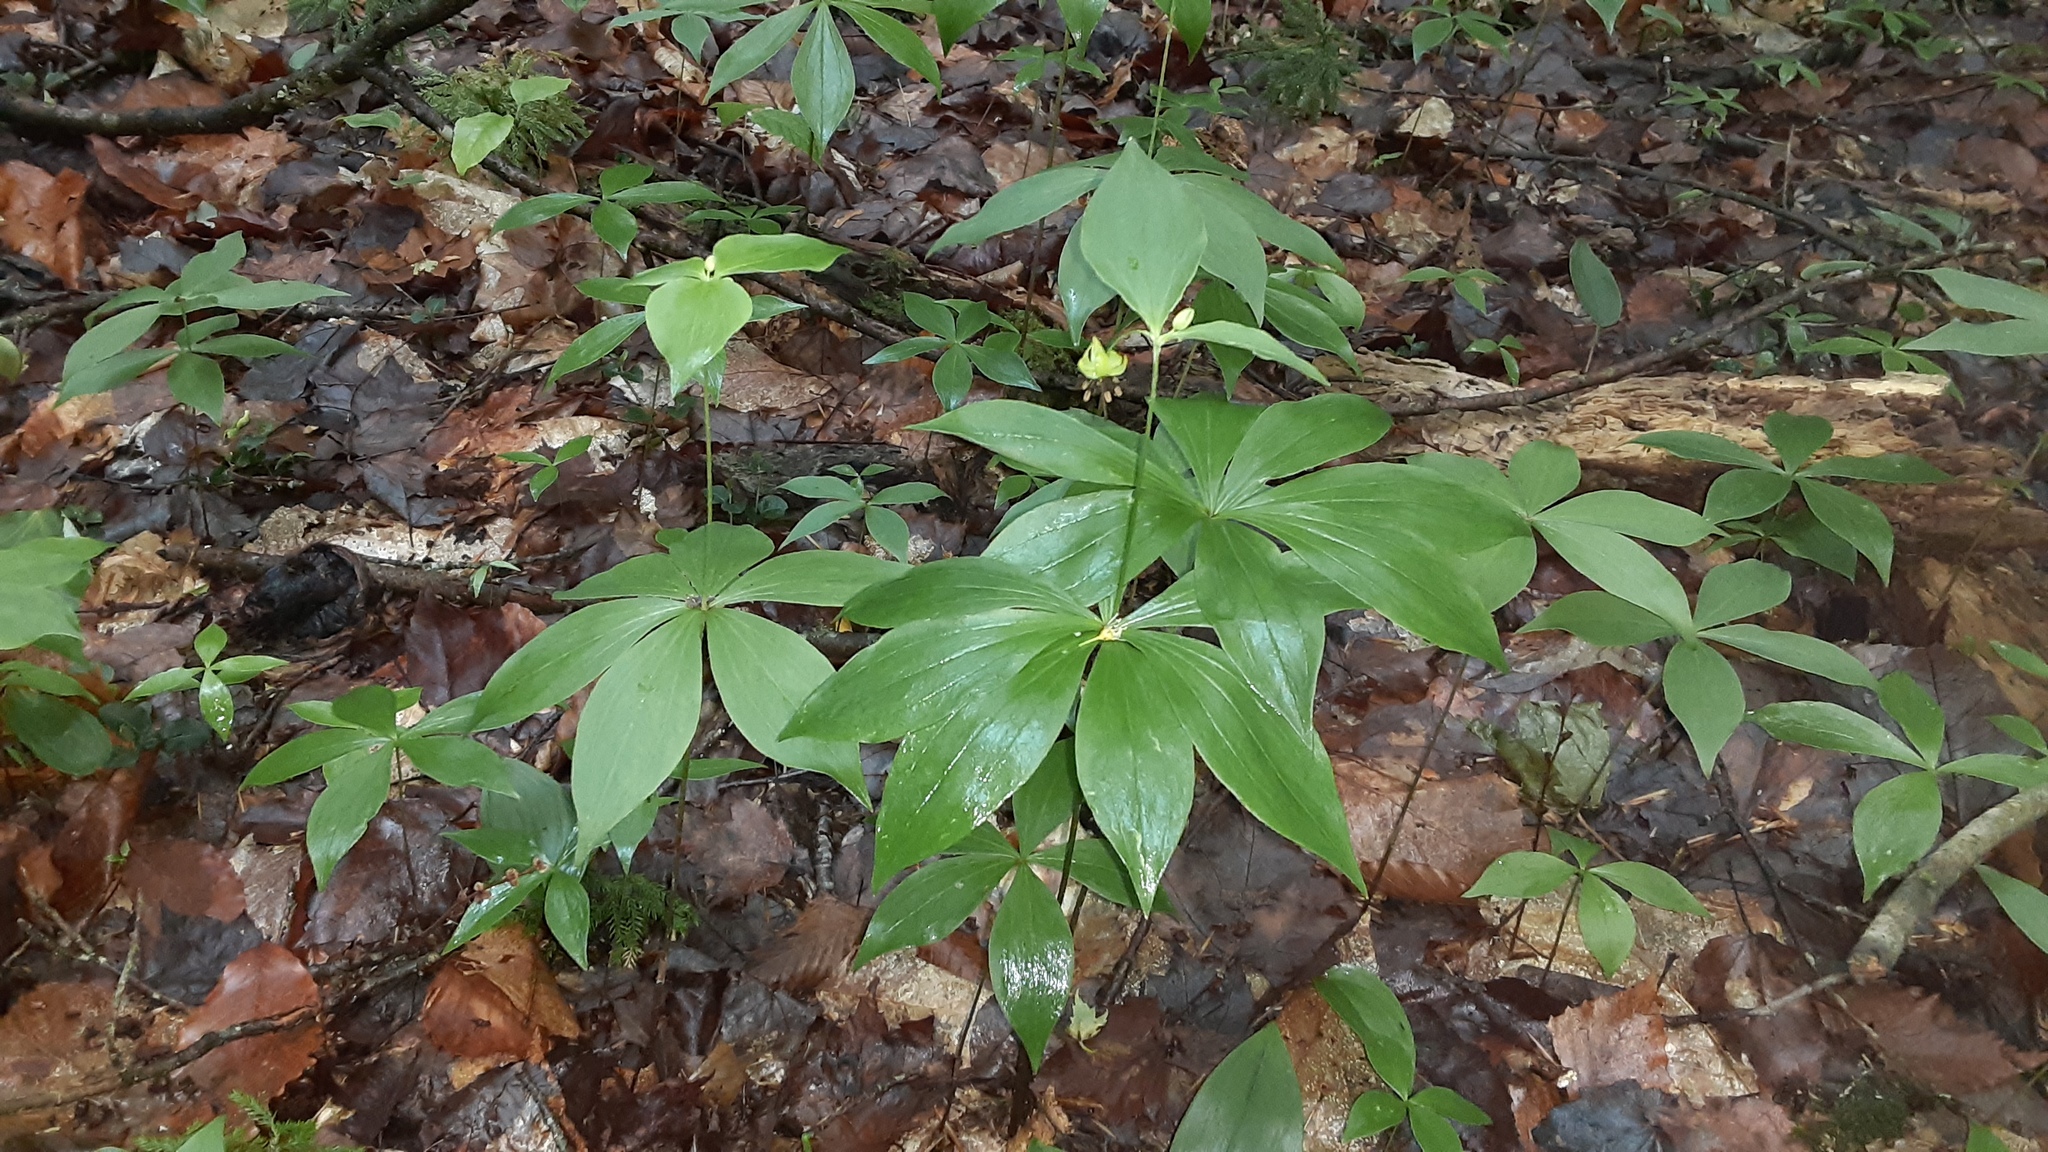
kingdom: Plantae
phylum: Tracheophyta
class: Liliopsida
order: Liliales
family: Liliaceae
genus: Medeola
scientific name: Medeola virginiana
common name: Indian cucumber-root
